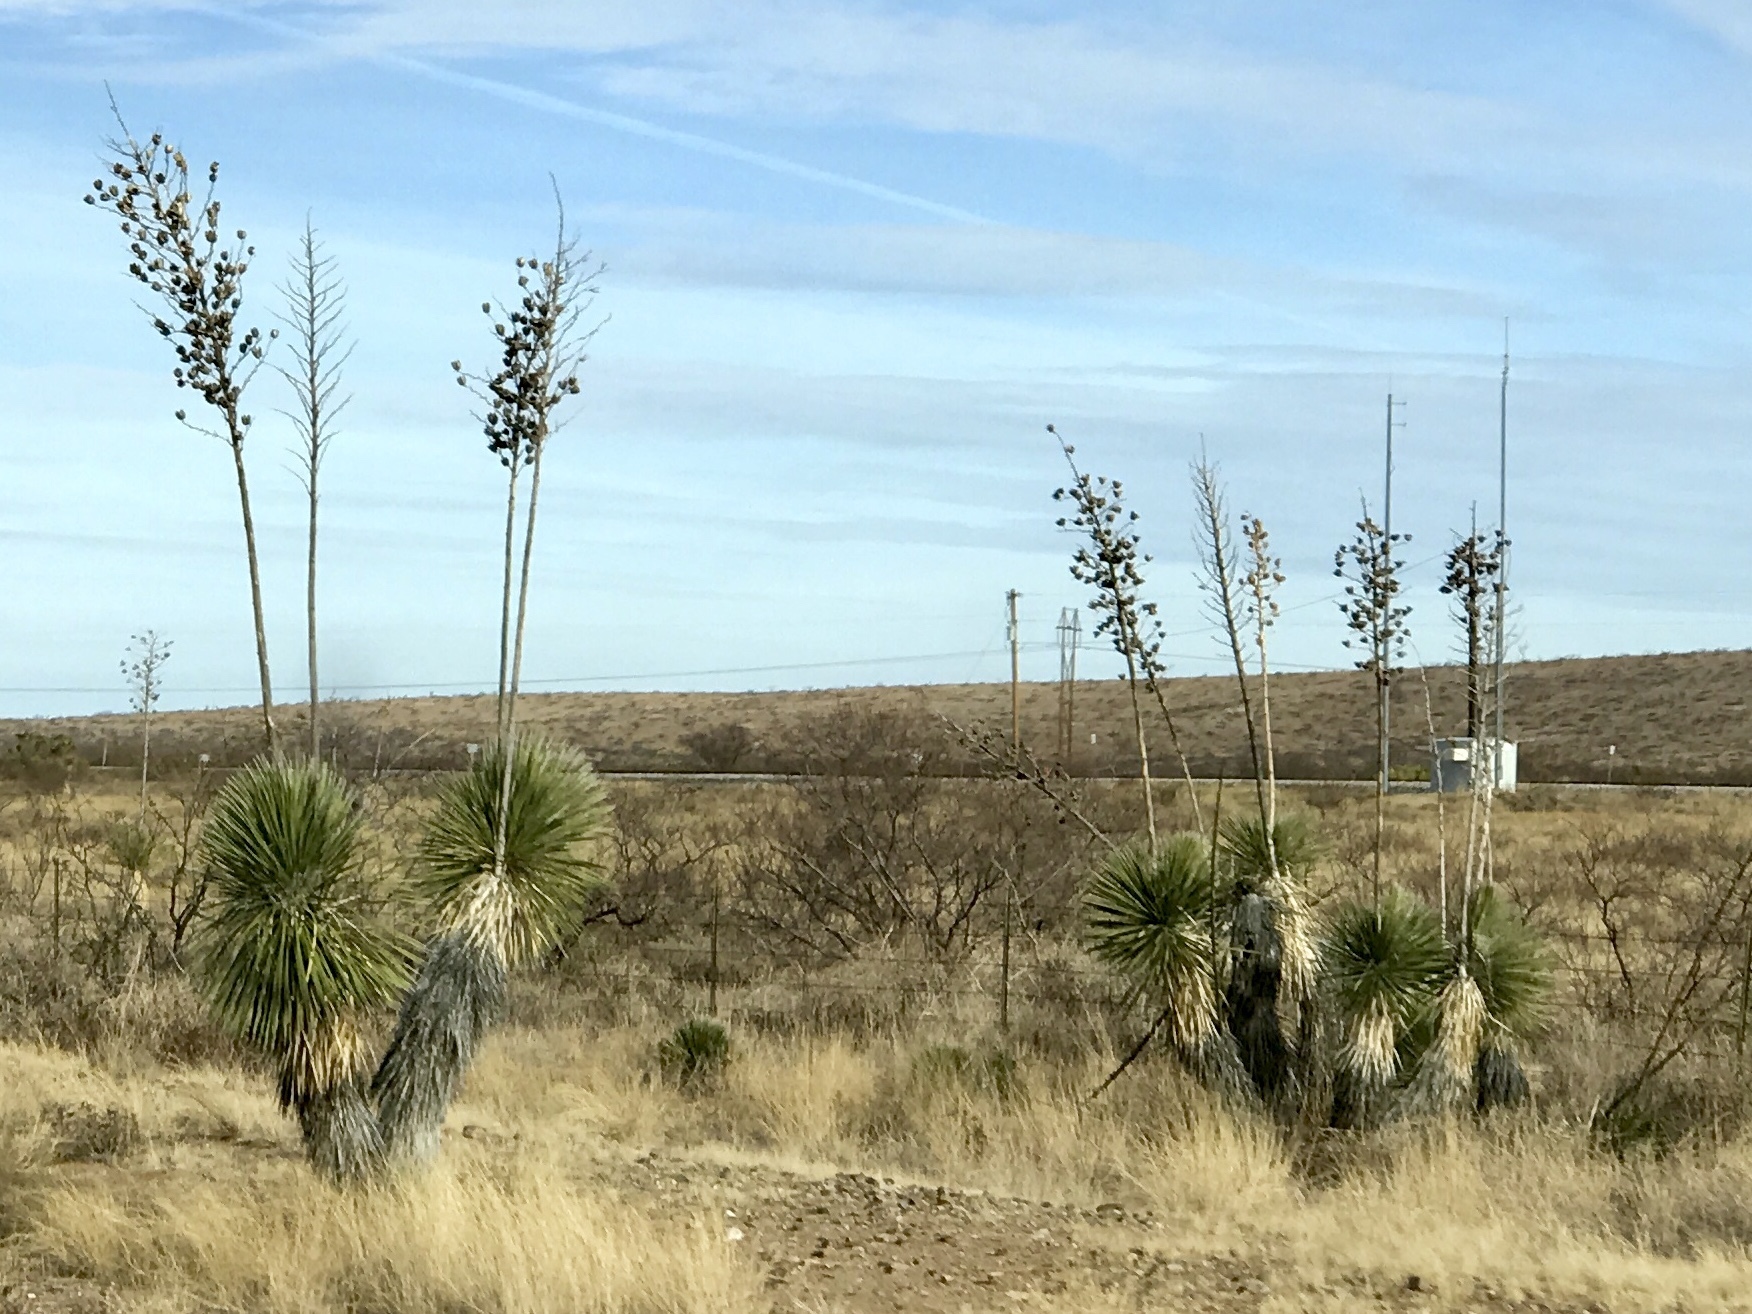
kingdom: Plantae
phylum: Tracheophyta
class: Liliopsida
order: Asparagales
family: Asparagaceae
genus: Yucca
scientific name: Yucca elata
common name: Palmella
